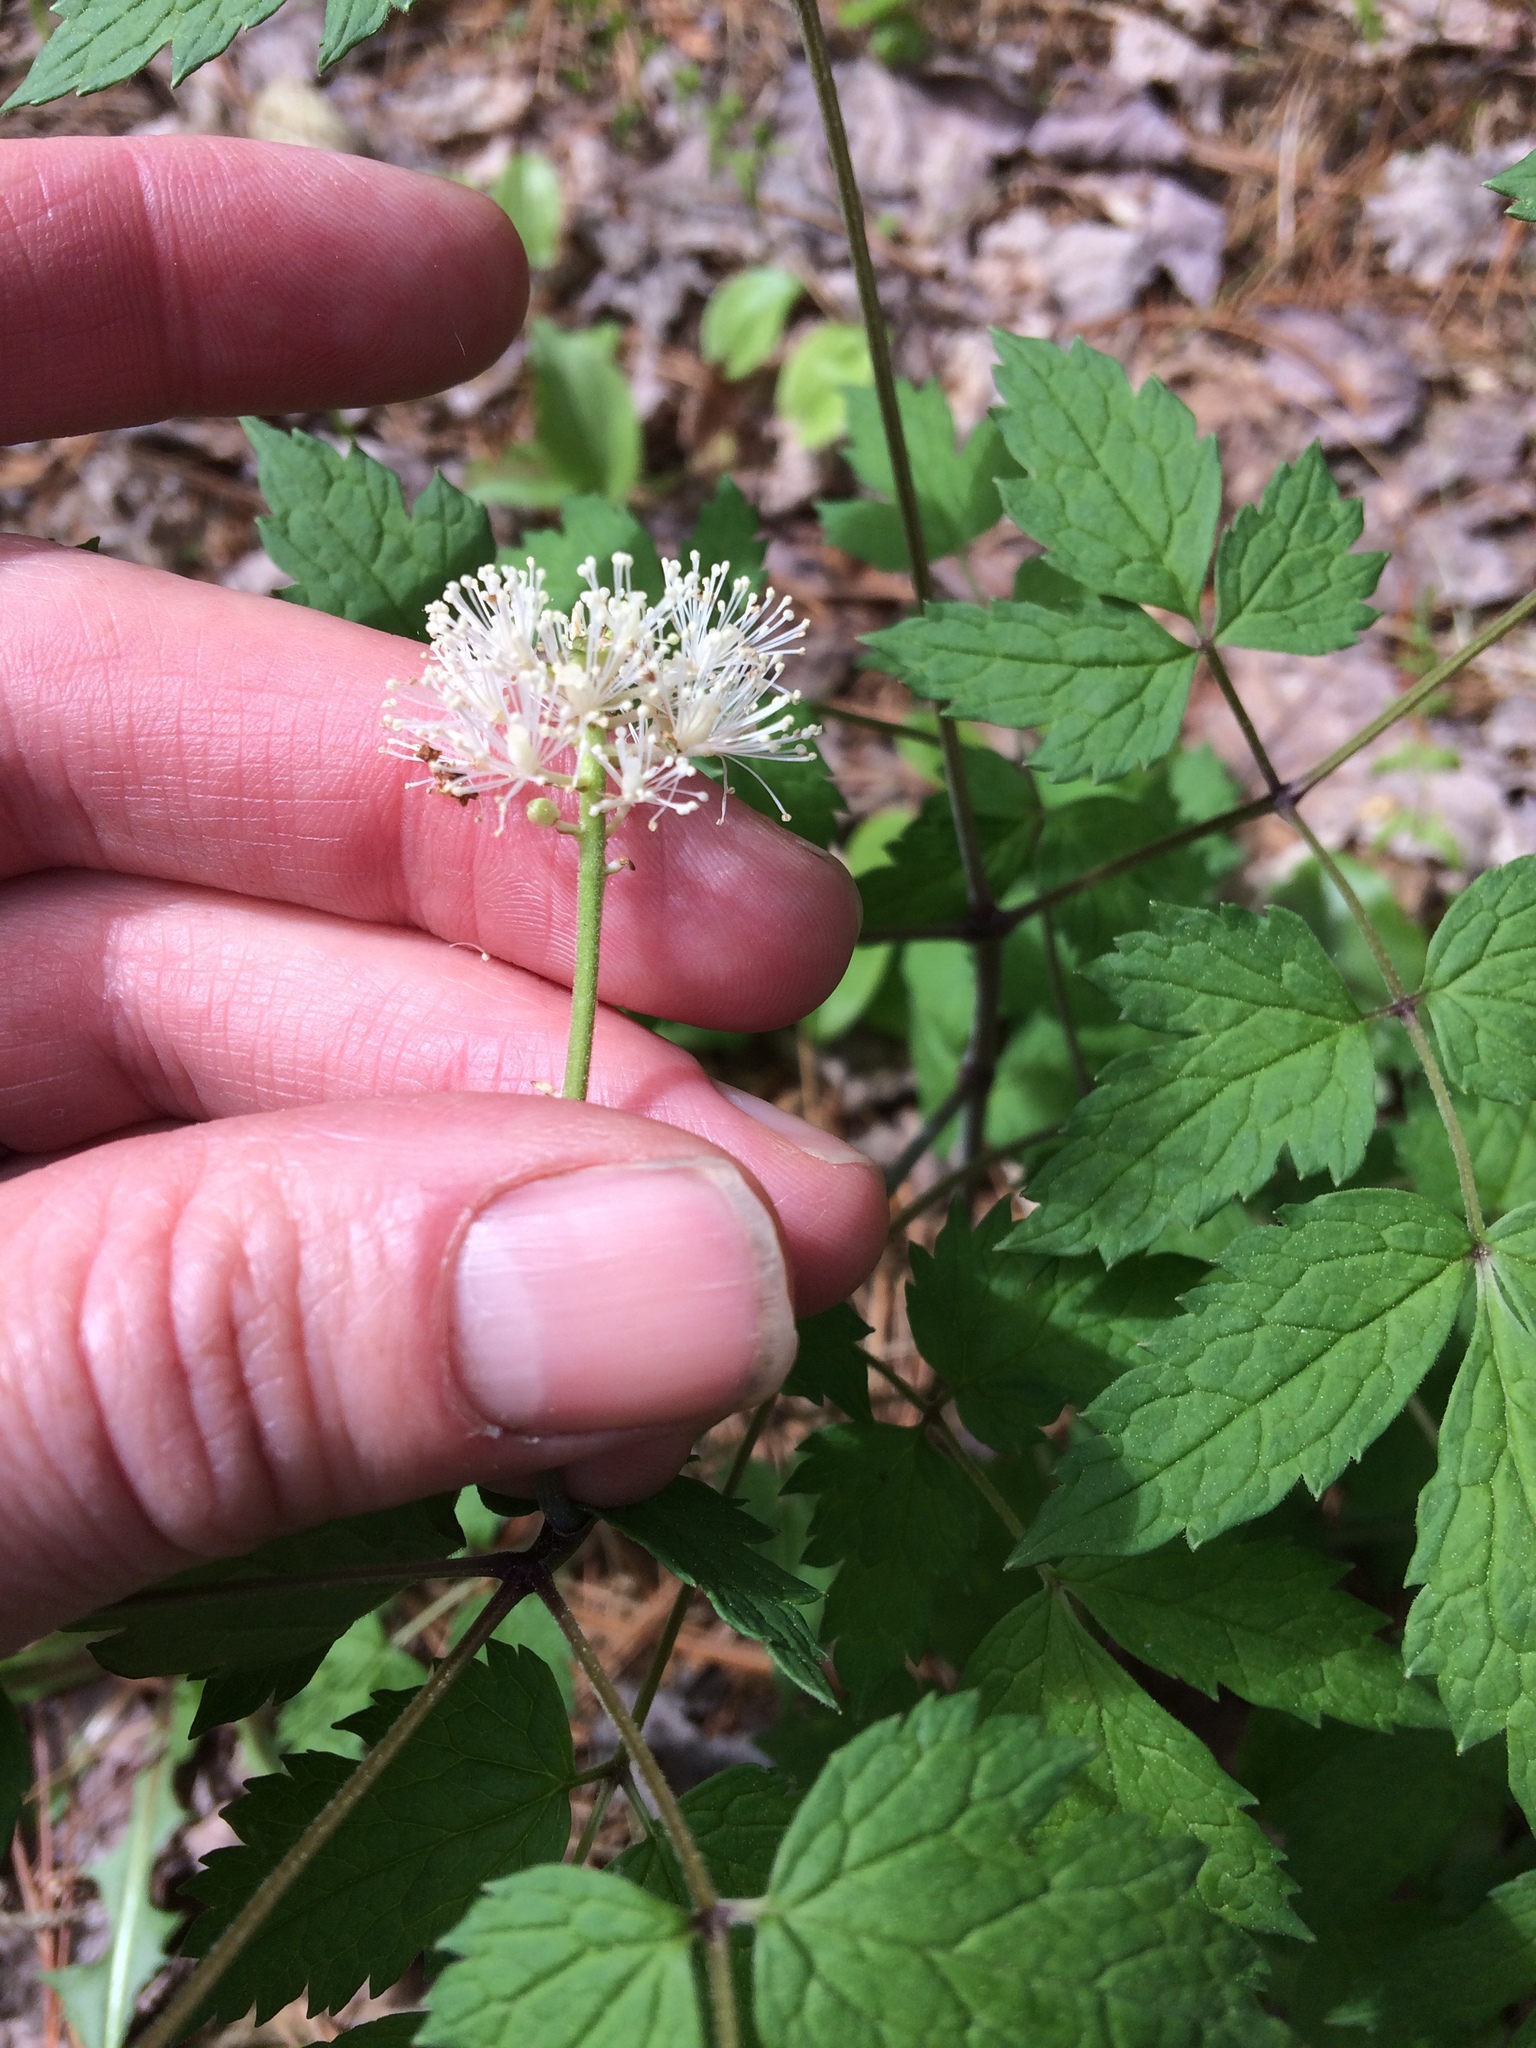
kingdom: Plantae
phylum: Tracheophyta
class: Magnoliopsida
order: Ranunculales
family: Ranunculaceae
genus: Actaea
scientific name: Actaea rubra
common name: Red baneberry
